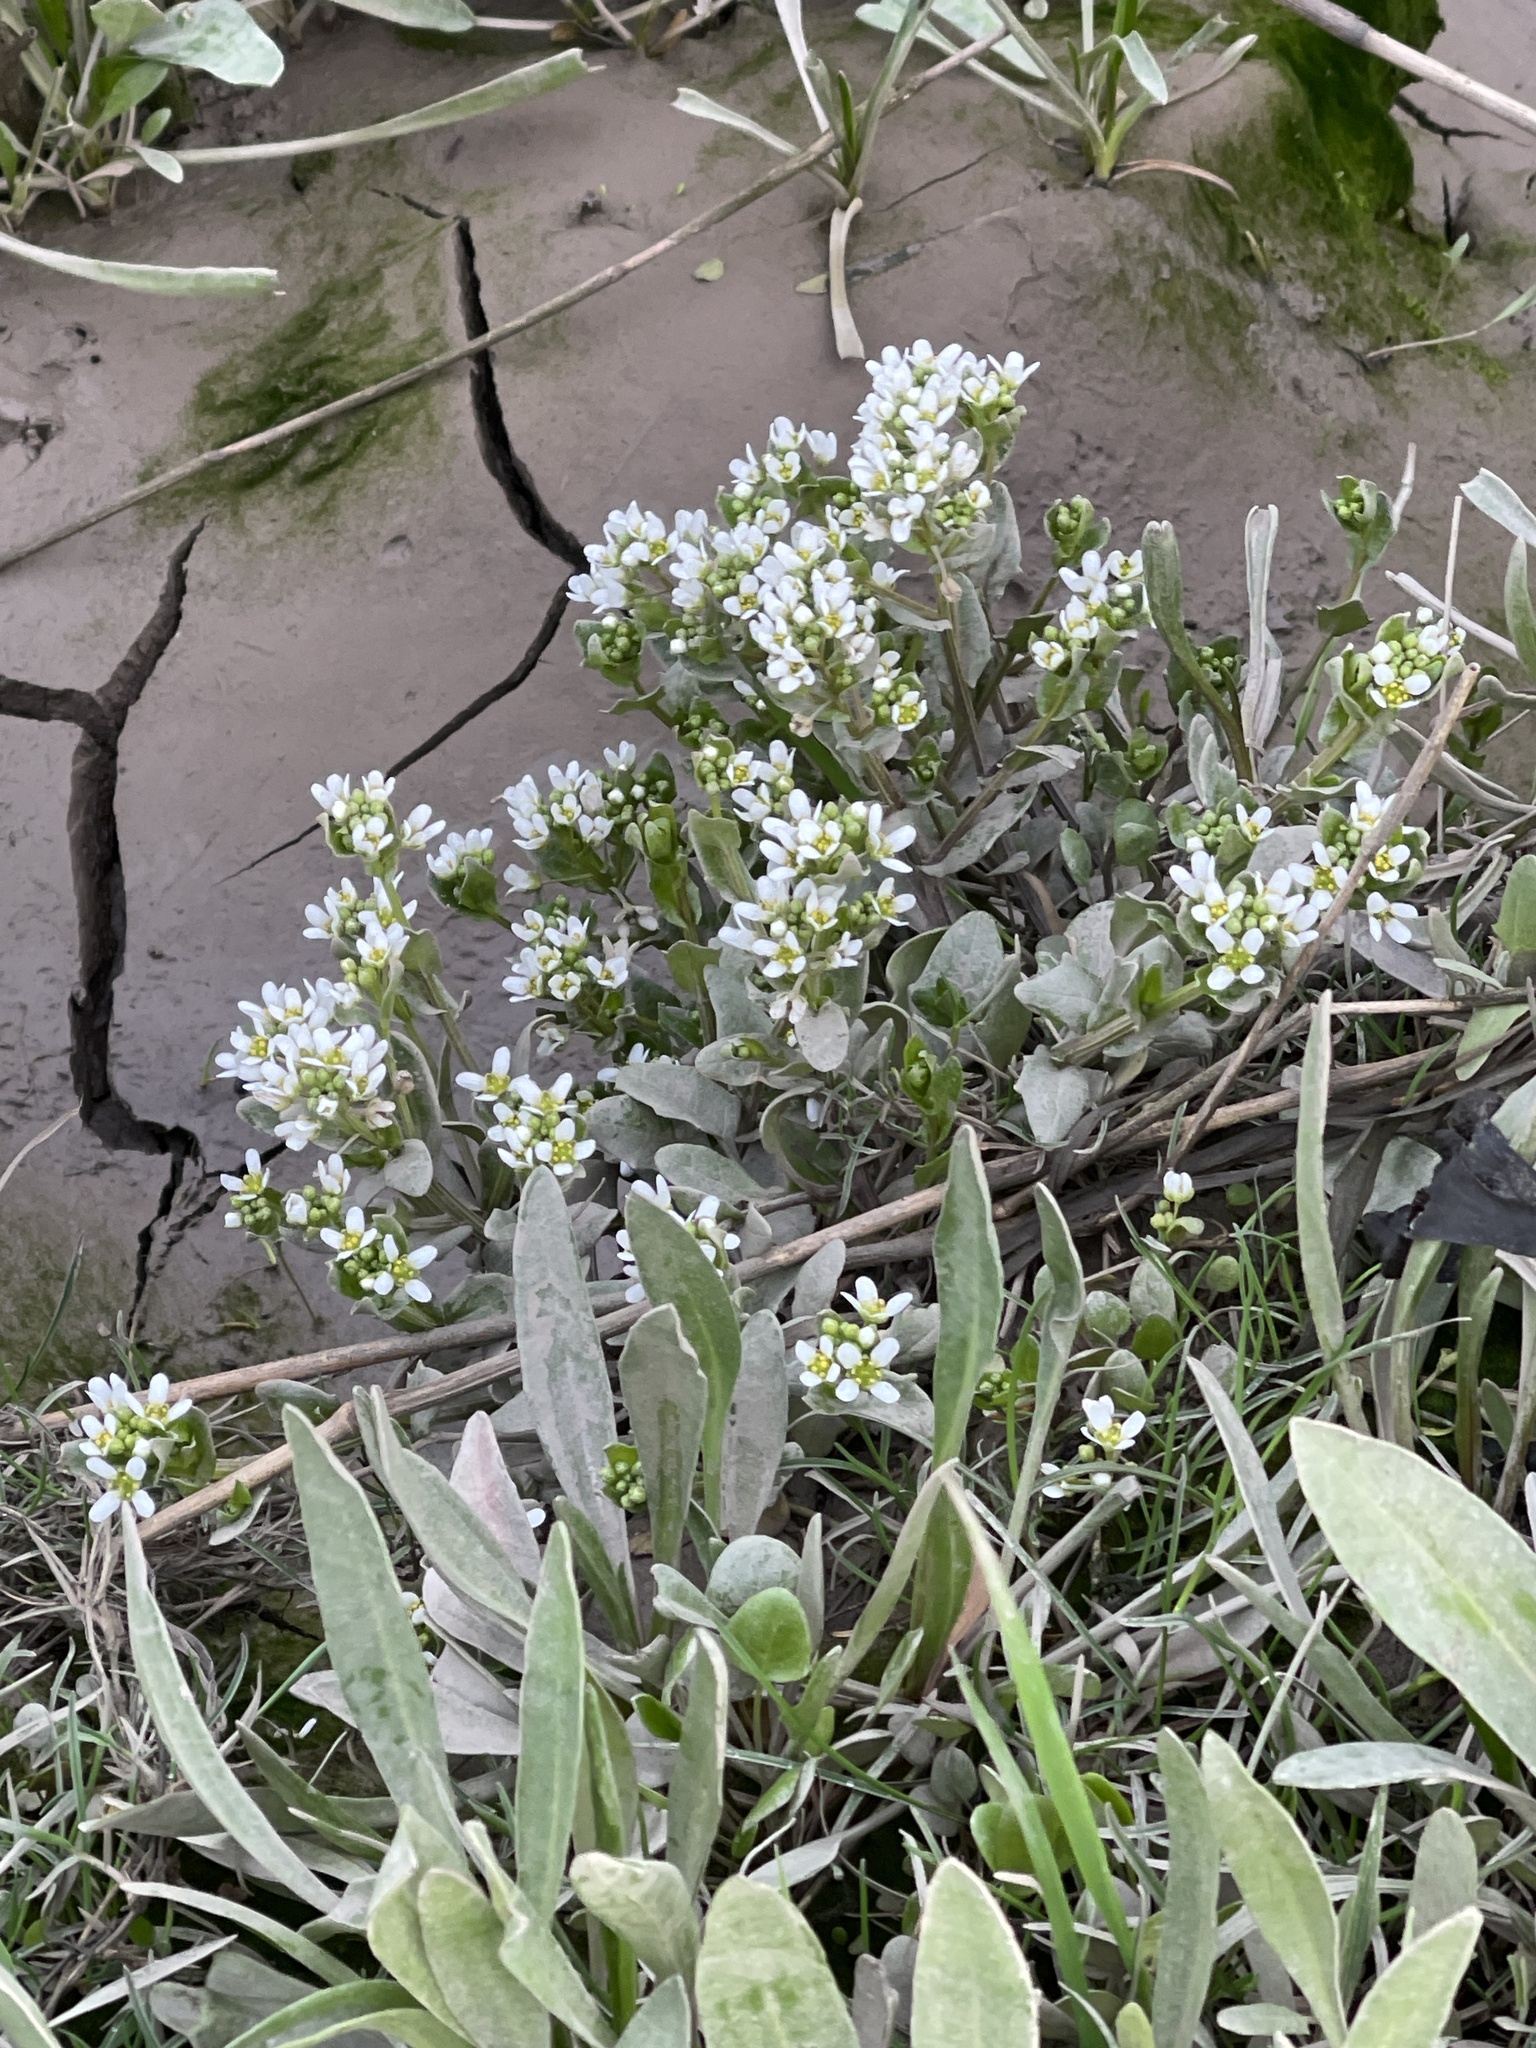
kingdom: Plantae
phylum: Tracheophyta
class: Magnoliopsida
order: Brassicales
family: Brassicaceae
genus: Cochlearia
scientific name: Cochlearia hollandica
